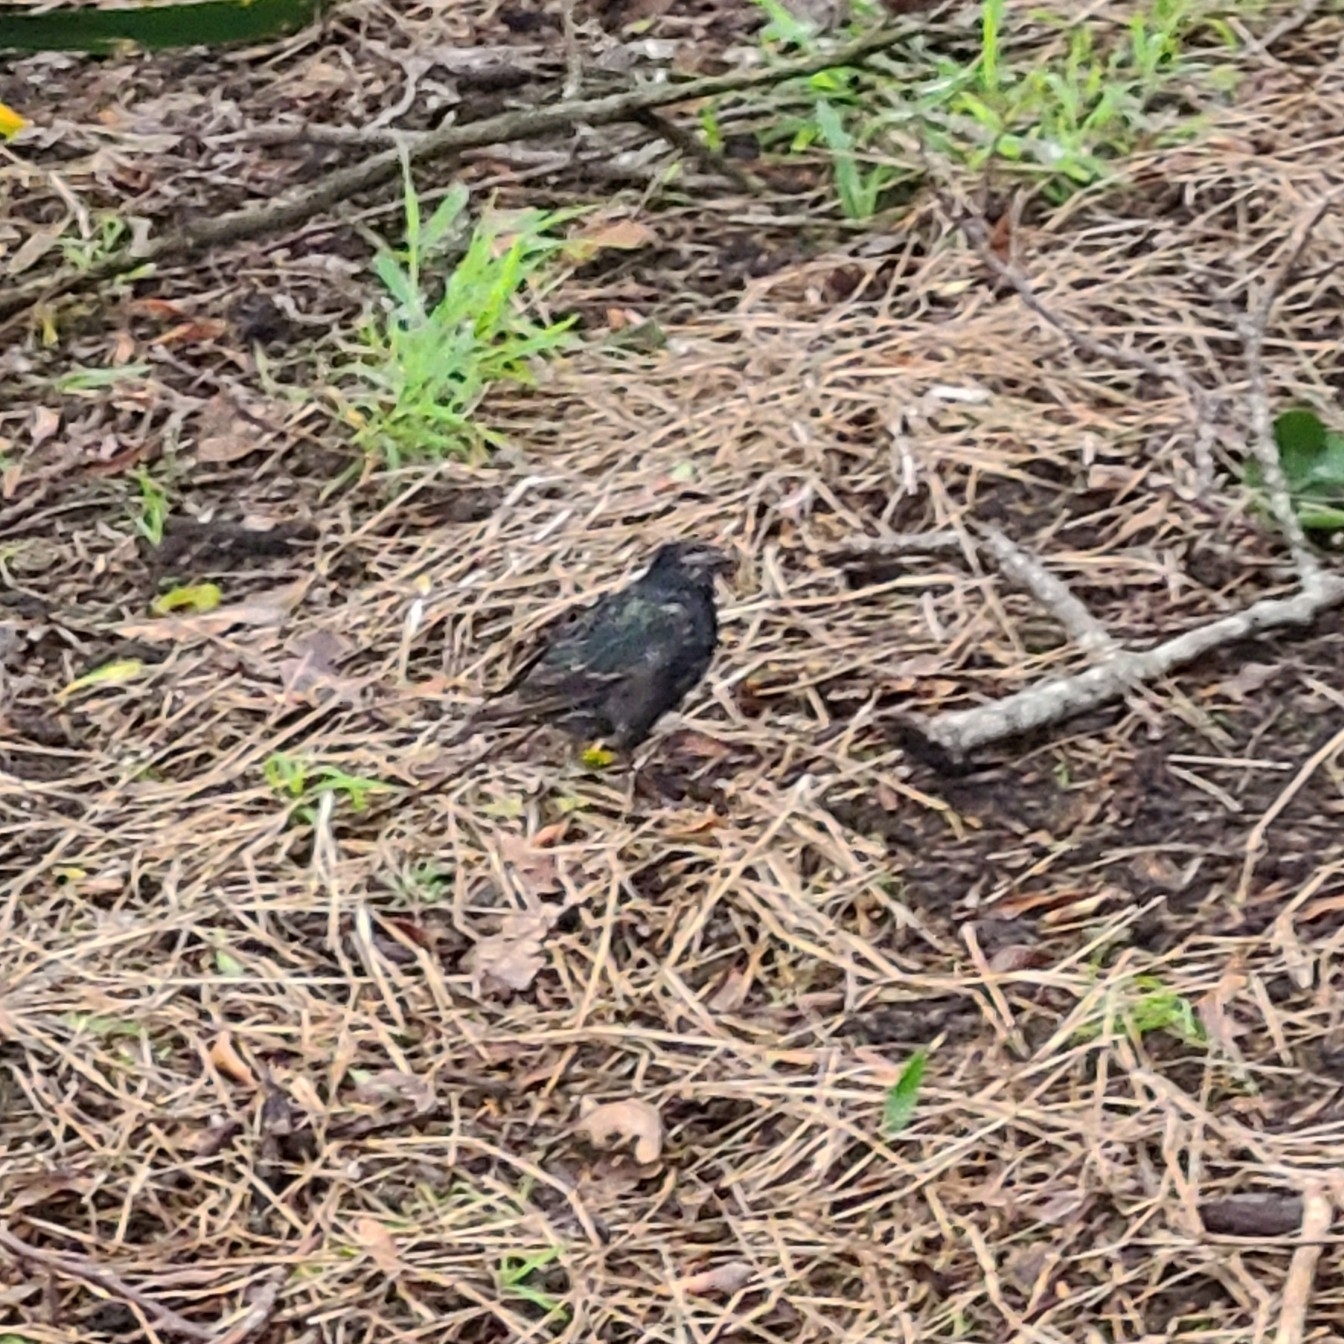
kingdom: Animalia
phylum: Chordata
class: Aves
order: Passeriformes
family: Sturnidae
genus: Sturnus
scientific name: Sturnus vulgaris
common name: Common starling
